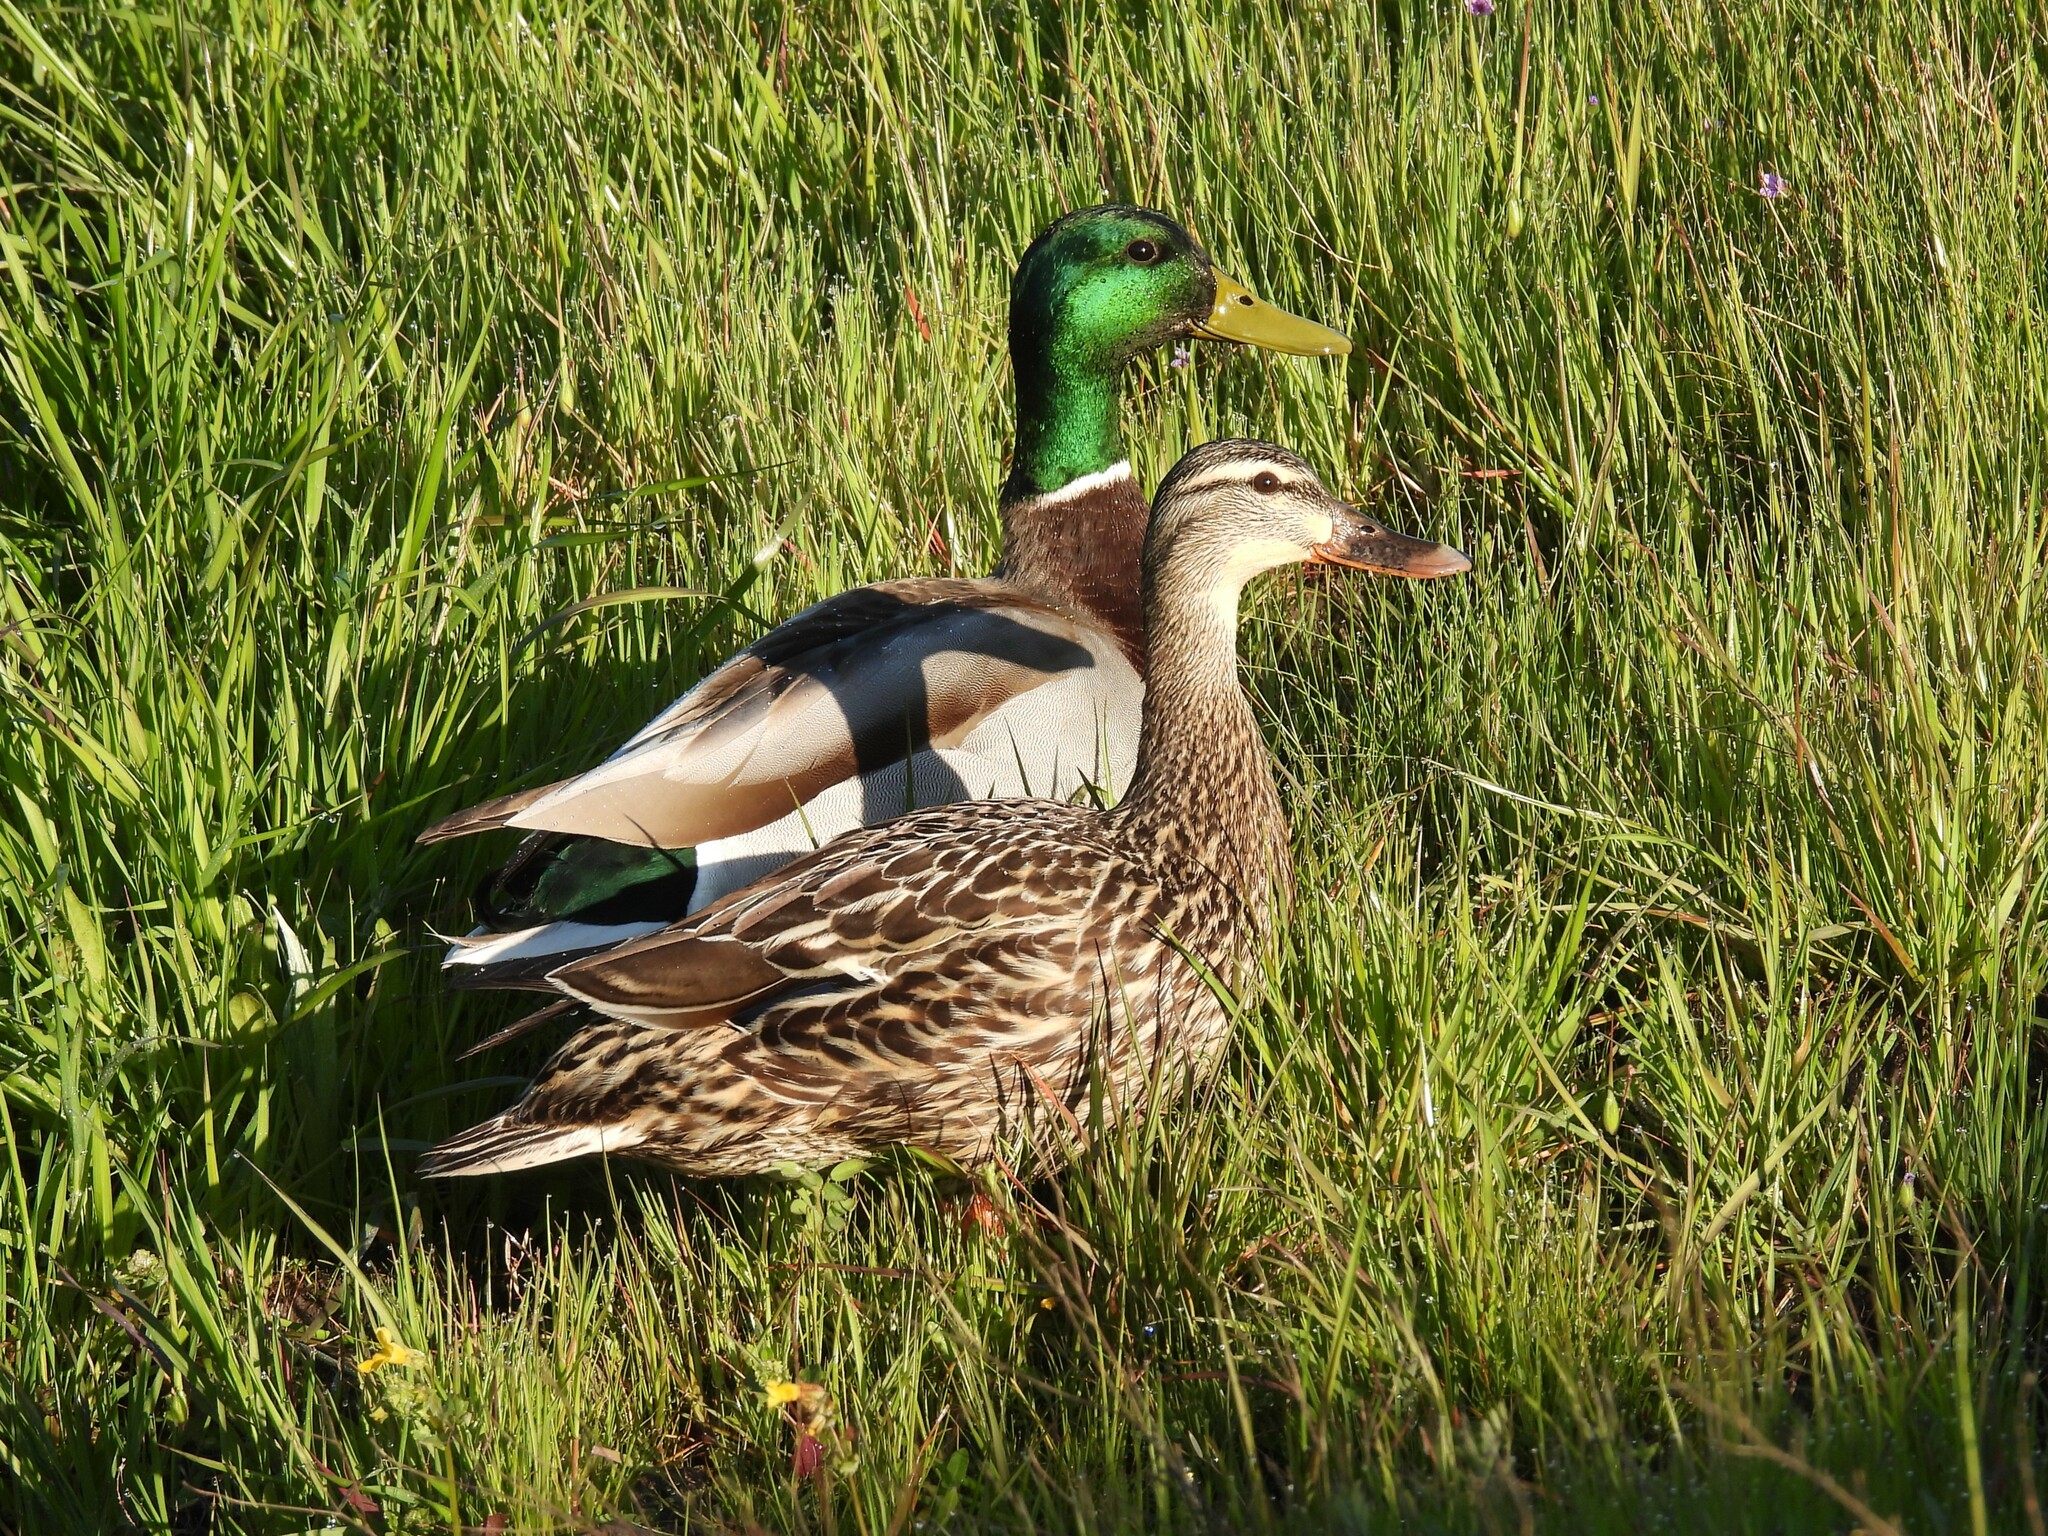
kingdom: Animalia
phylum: Chordata
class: Aves
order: Anseriformes
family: Anatidae
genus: Anas
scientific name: Anas platyrhynchos
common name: Mallard
